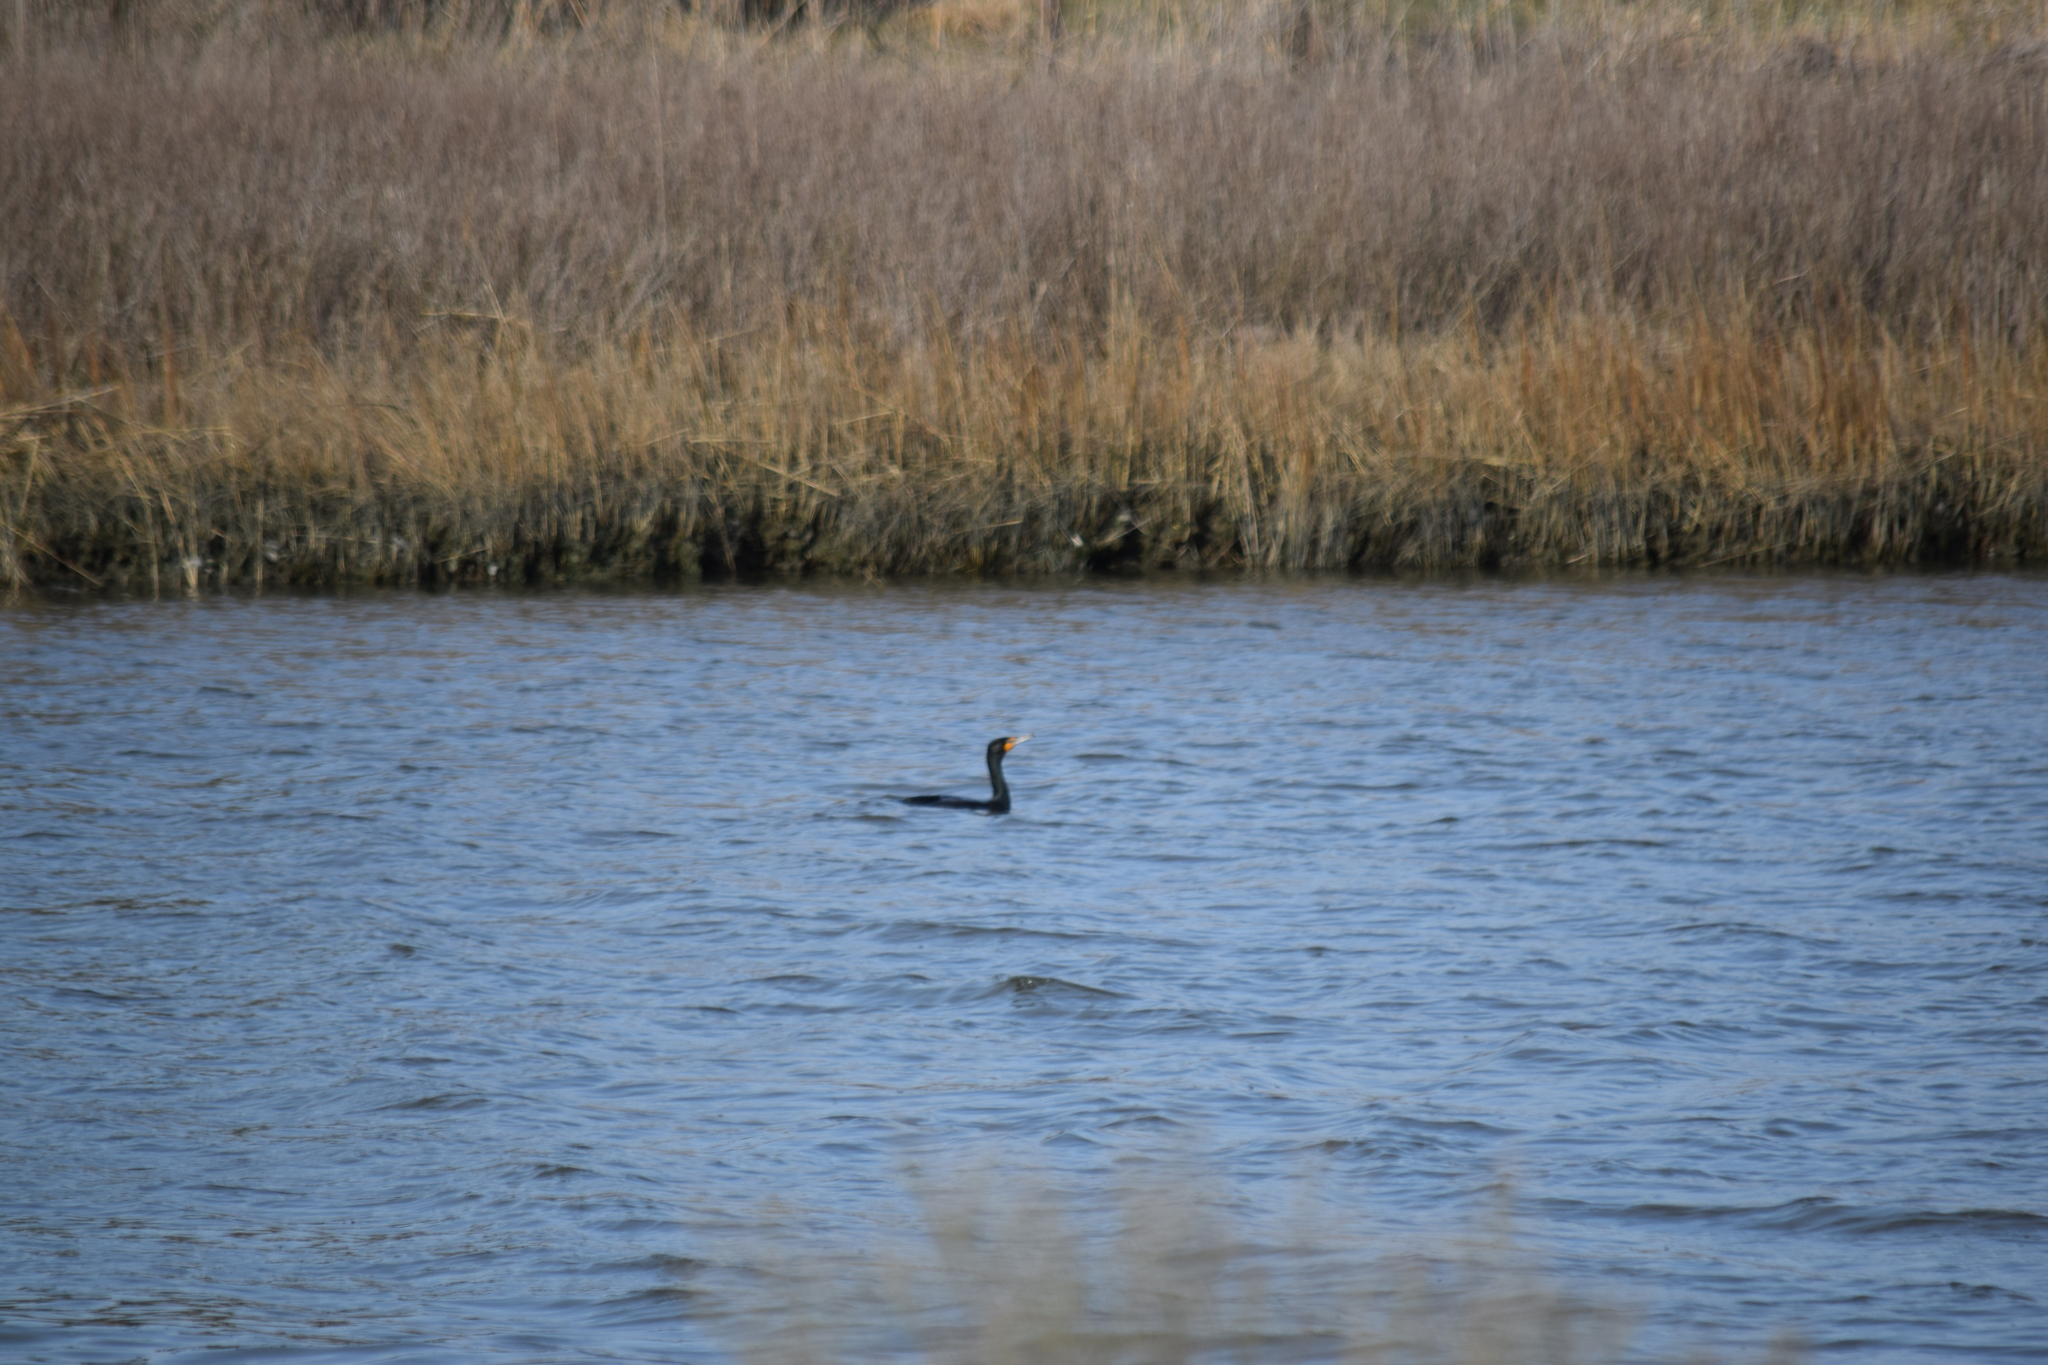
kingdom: Animalia
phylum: Chordata
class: Aves
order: Suliformes
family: Phalacrocoracidae
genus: Phalacrocorax
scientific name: Phalacrocorax auritus
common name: Double-crested cormorant
